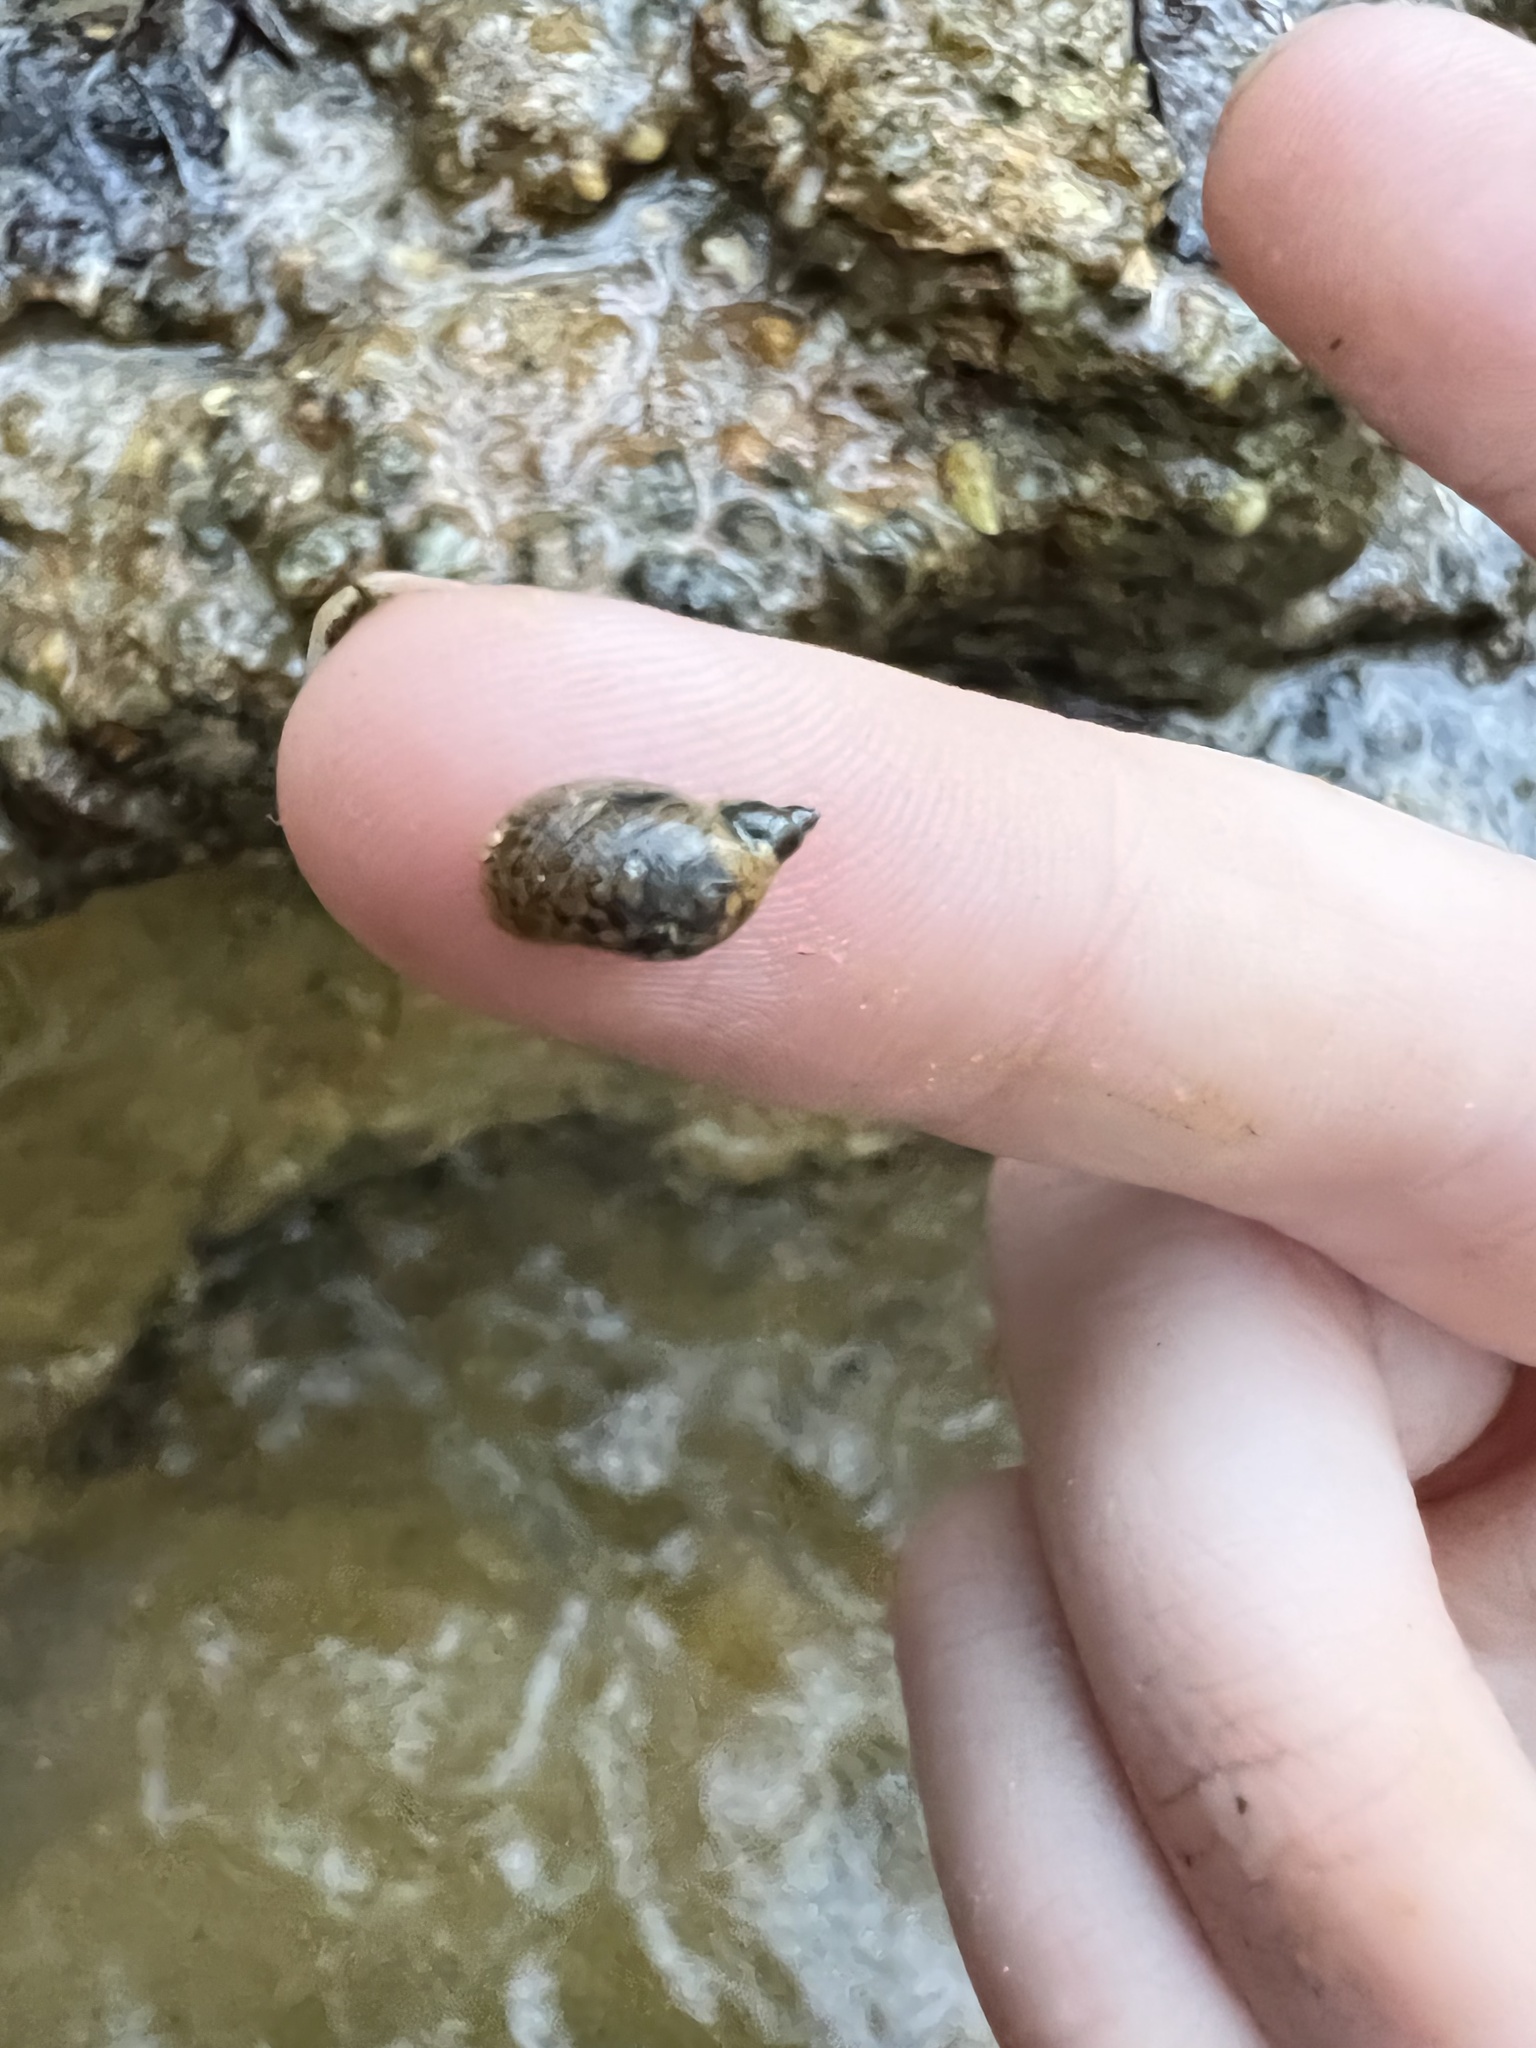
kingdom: Animalia
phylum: Mollusca
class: Gastropoda
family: Lymnaeidae
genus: Pseudosuccinea
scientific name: Pseudosuccinea columella
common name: Mimic lymnaea
